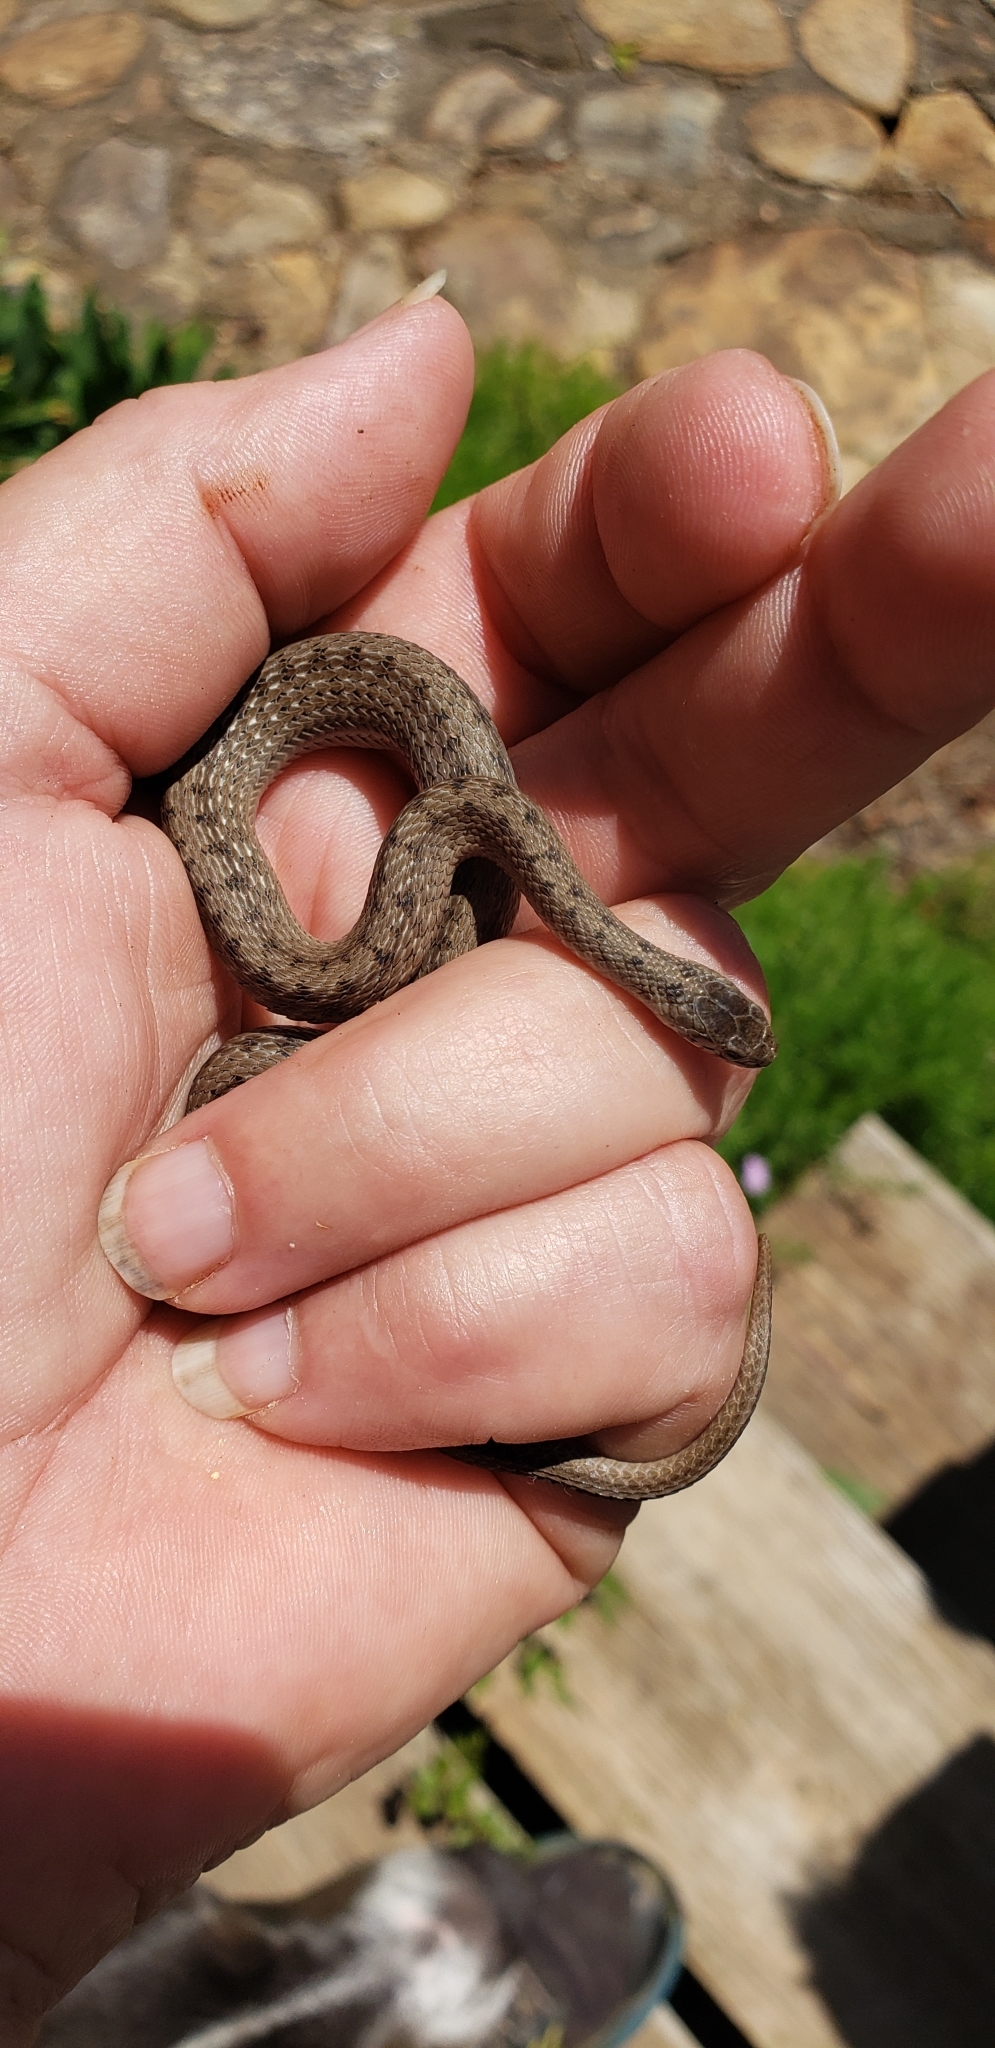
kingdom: Animalia
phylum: Chordata
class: Squamata
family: Colubridae
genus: Storeria
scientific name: Storeria dekayi
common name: (dekay’s) brown snake
